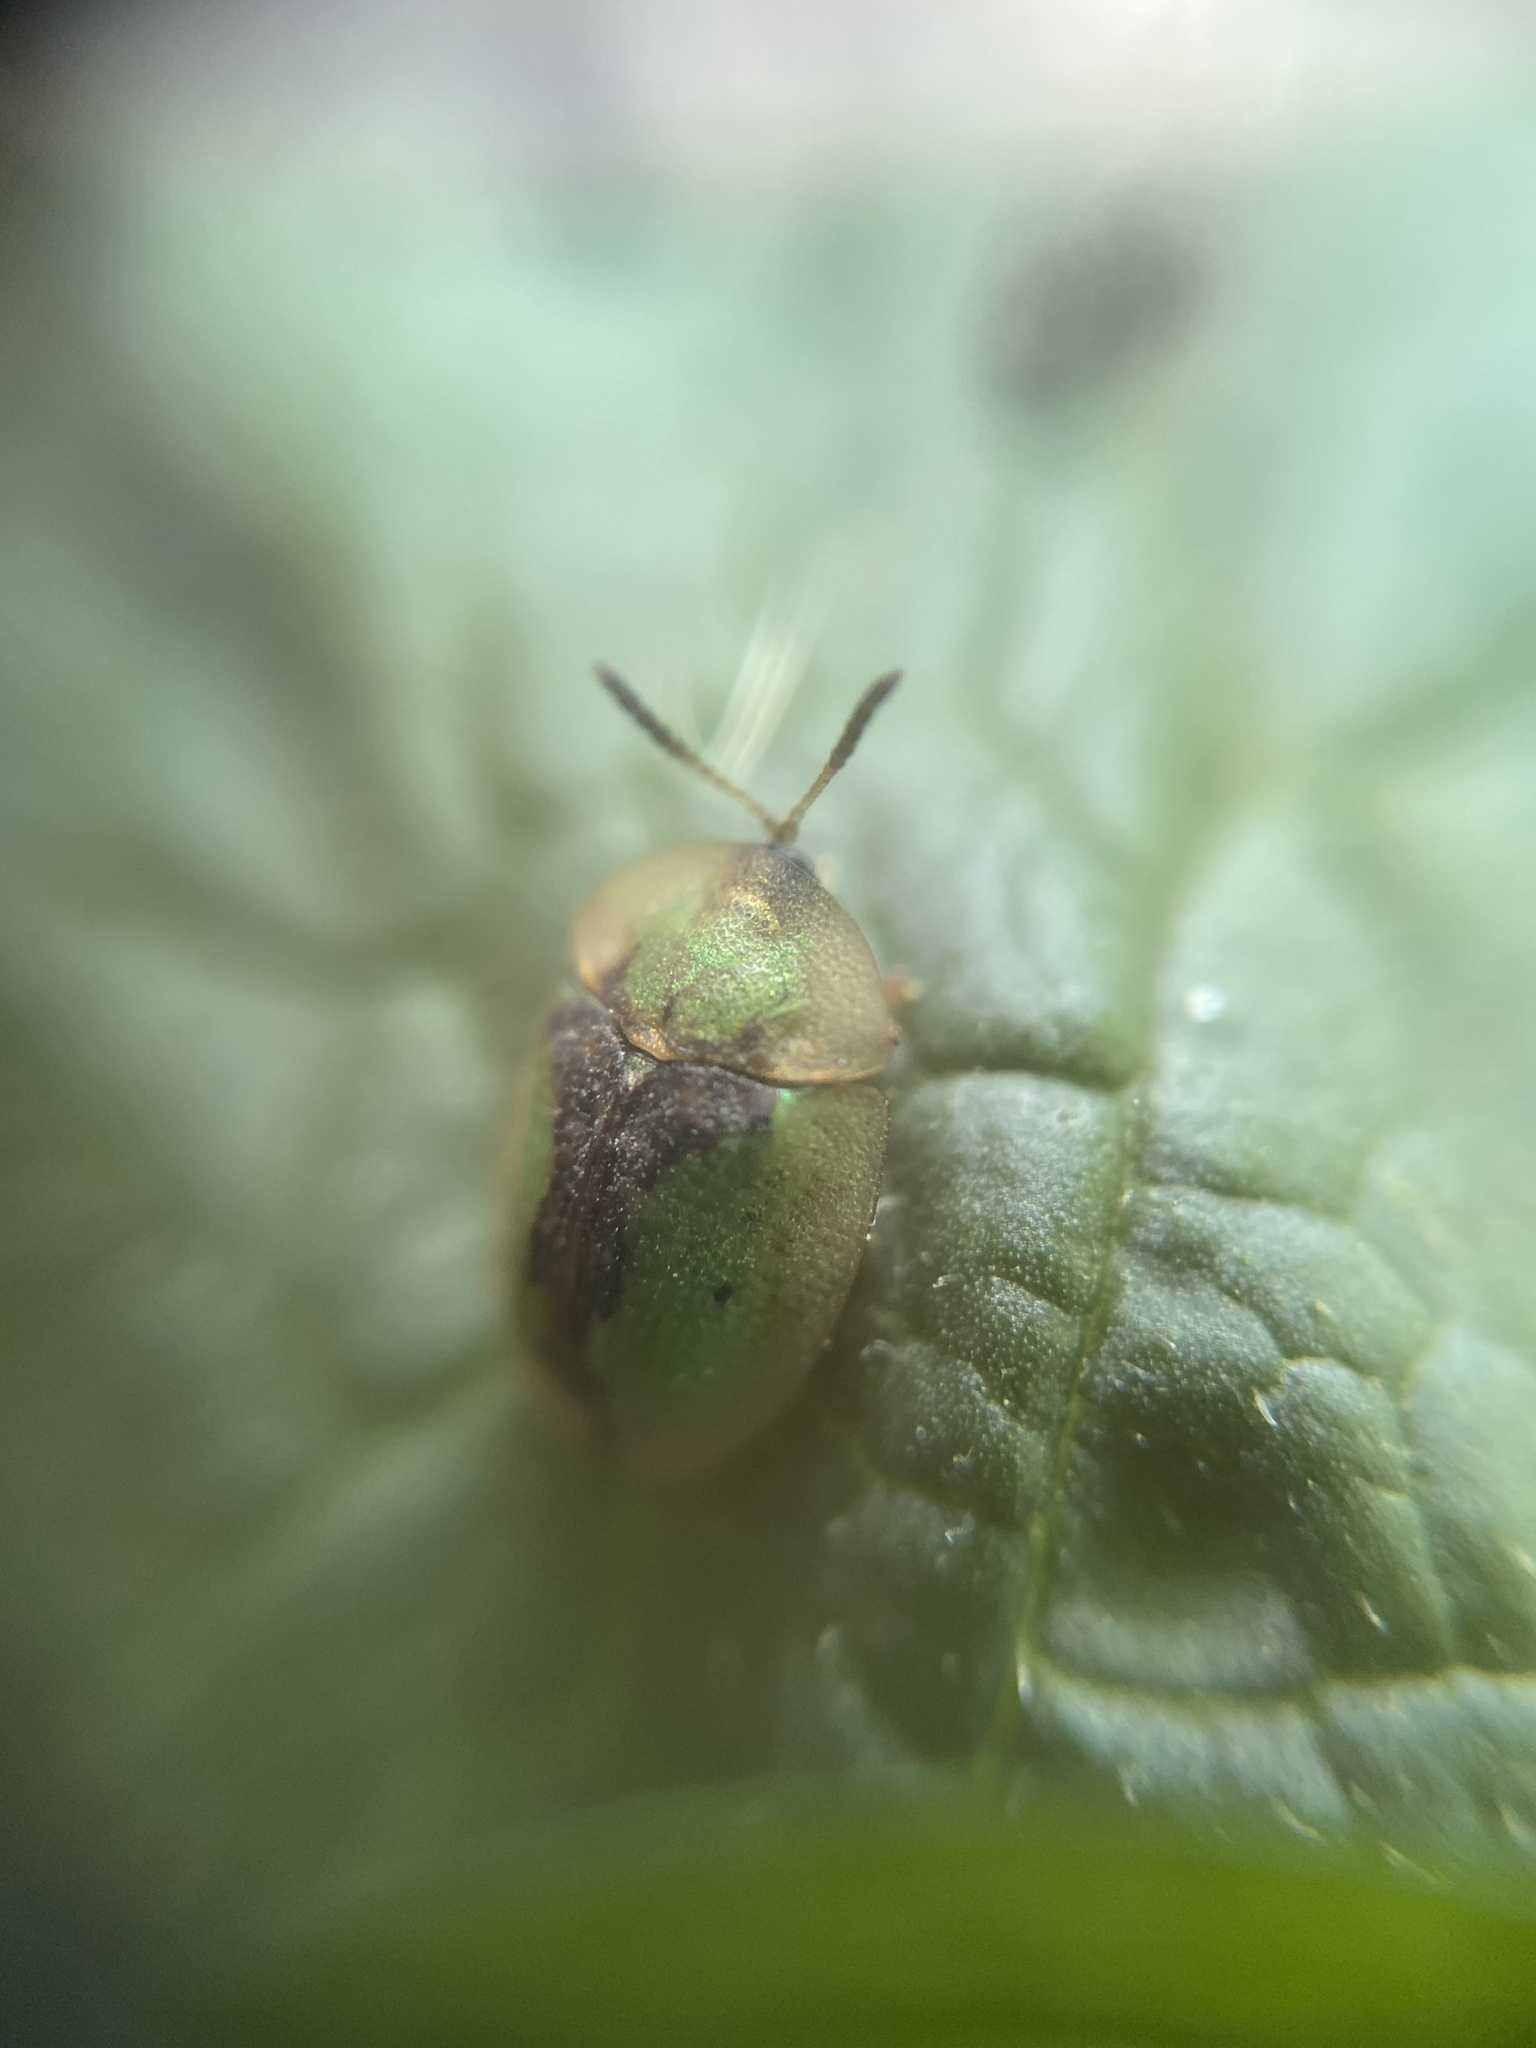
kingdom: Animalia
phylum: Arthropoda
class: Insecta
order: Coleoptera
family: Chrysomelidae
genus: Cassida
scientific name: Cassida vibex
